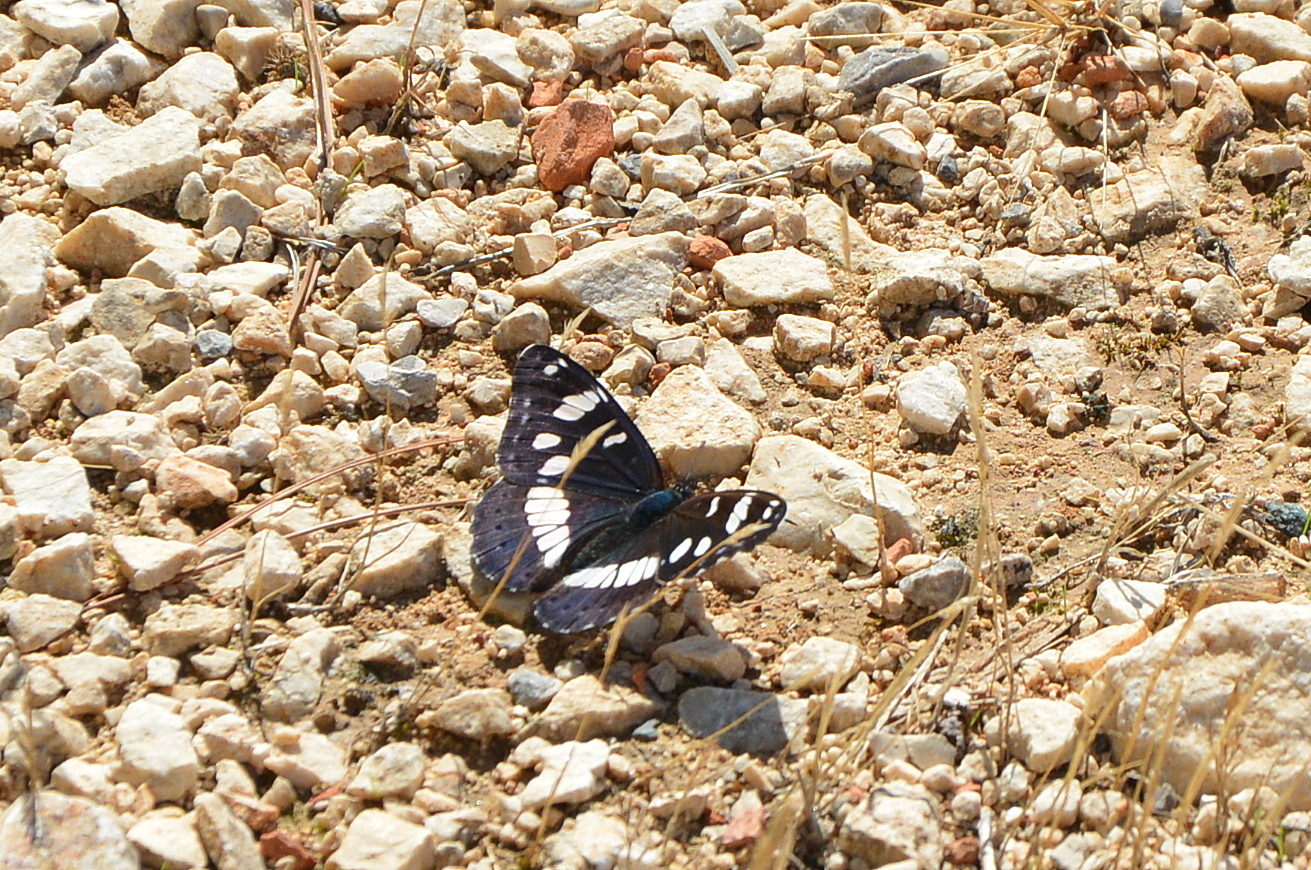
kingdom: Animalia
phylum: Arthropoda
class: Insecta
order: Lepidoptera
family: Nymphalidae
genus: Limenitis
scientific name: Limenitis reducta
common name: Southern white admiral
